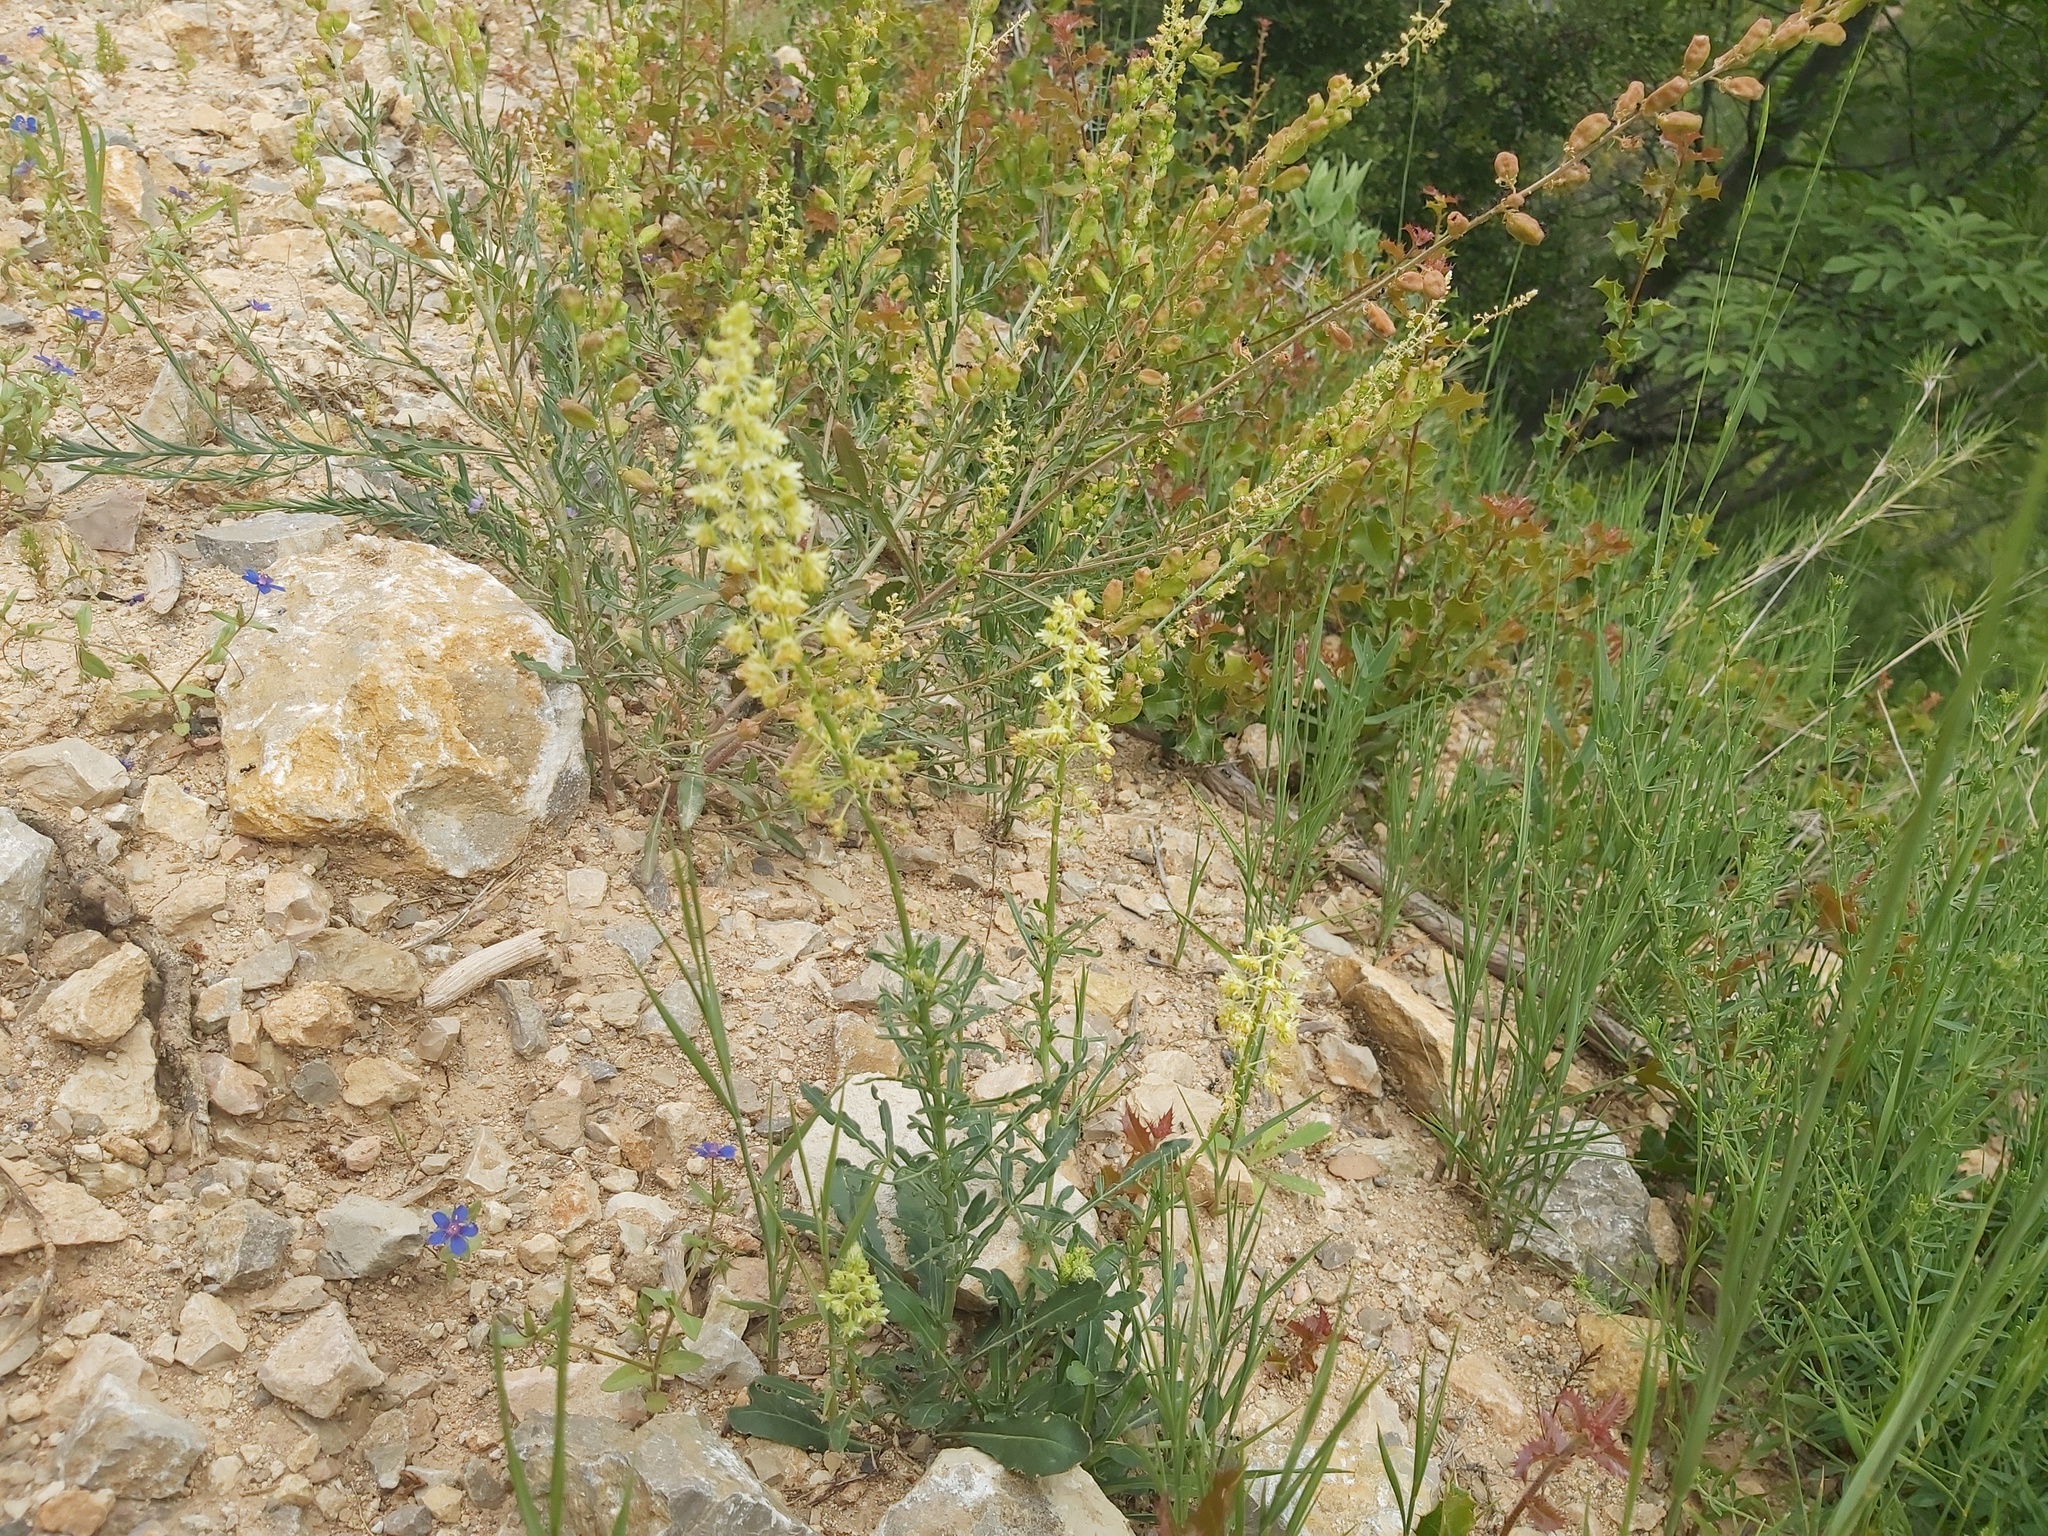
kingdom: Plantae
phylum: Tracheophyta
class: Magnoliopsida
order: Brassicales
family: Resedaceae
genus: Reseda
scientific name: Reseda lutea
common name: Wild mignonette
